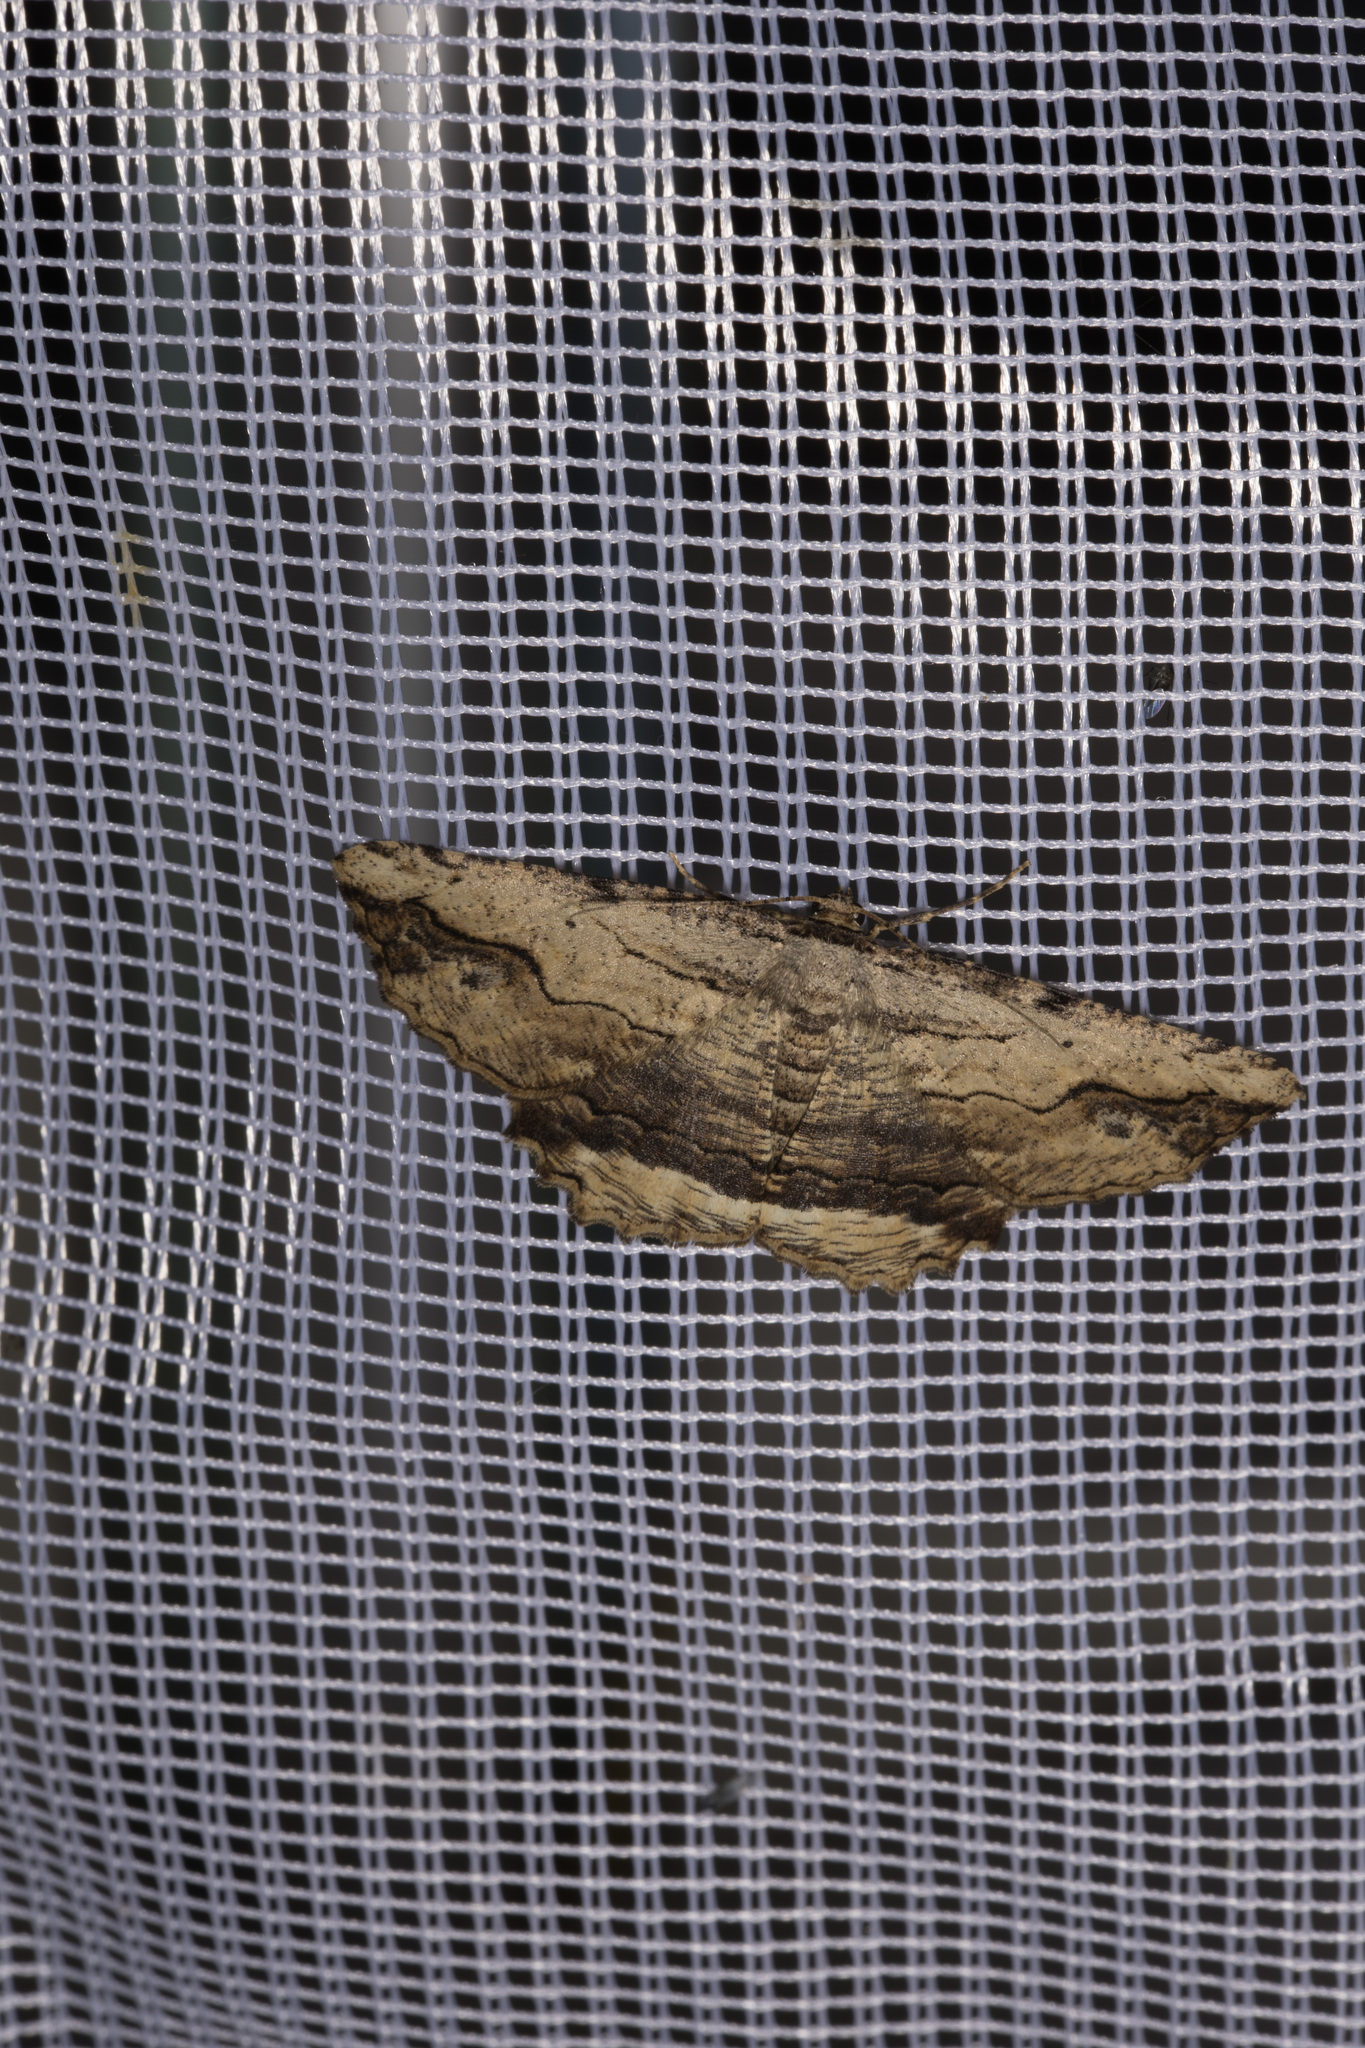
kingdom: Animalia
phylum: Arthropoda
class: Insecta
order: Lepidoptera
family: Geometridae
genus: Menophra
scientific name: Menophra abruptaria
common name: Waved umber
